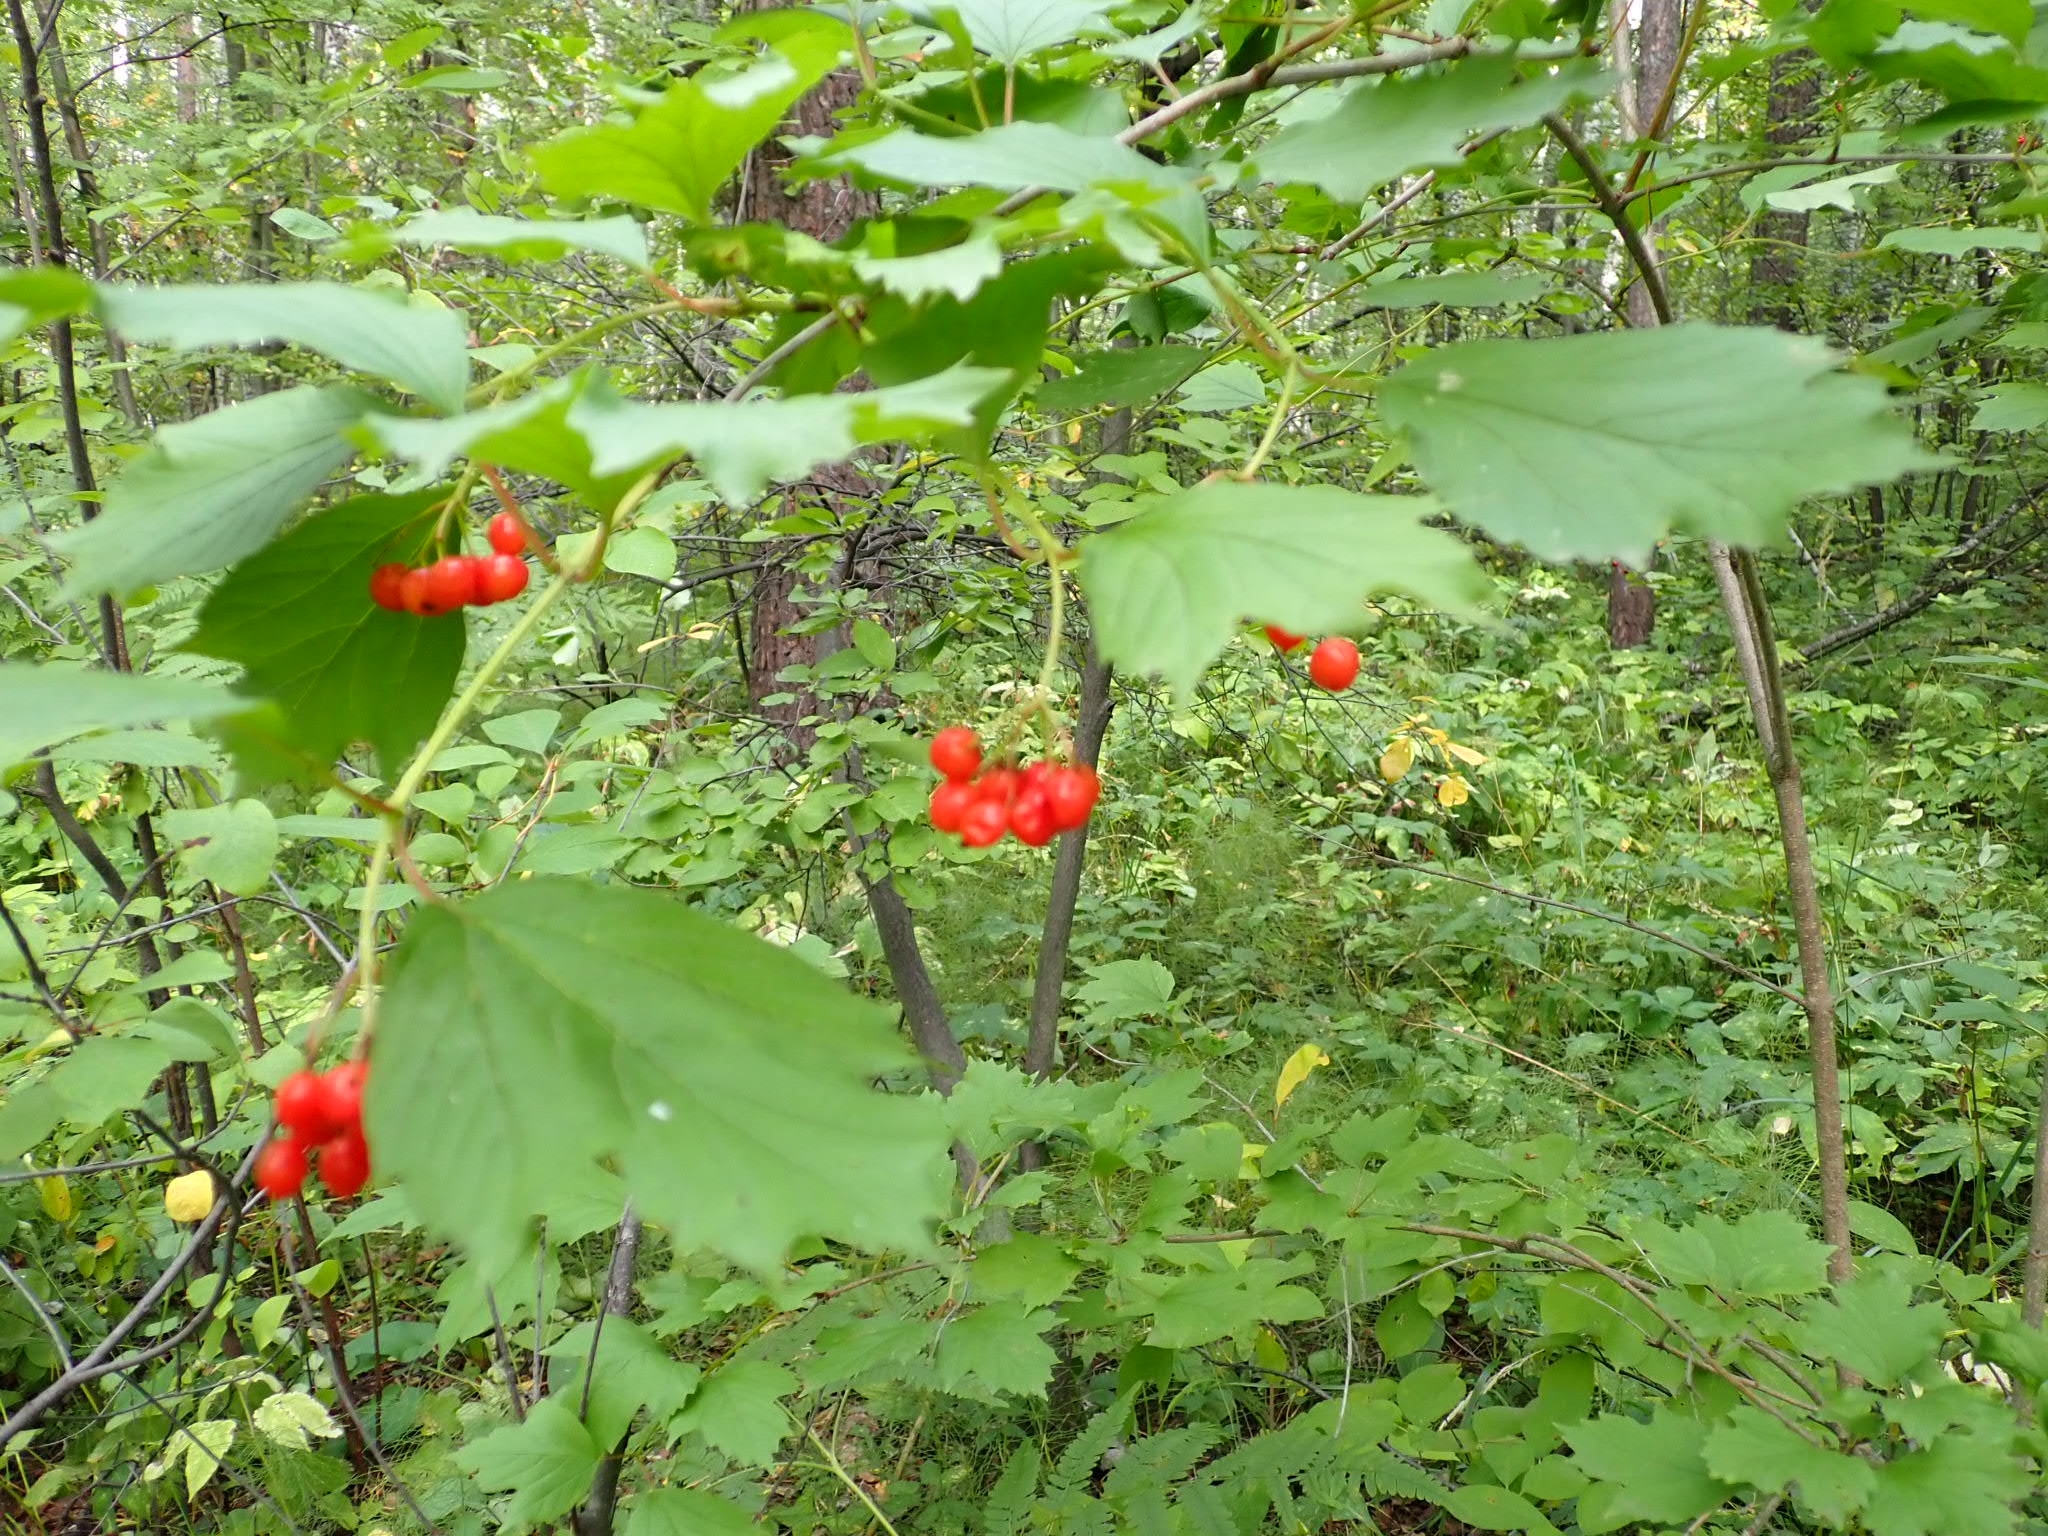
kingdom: Plantae
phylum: Tracheophyta
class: Magnoliopsida
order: Dipsacales
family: Viburnaceae
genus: Viburnum
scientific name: Viburnum opulus
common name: Guelder-rose
